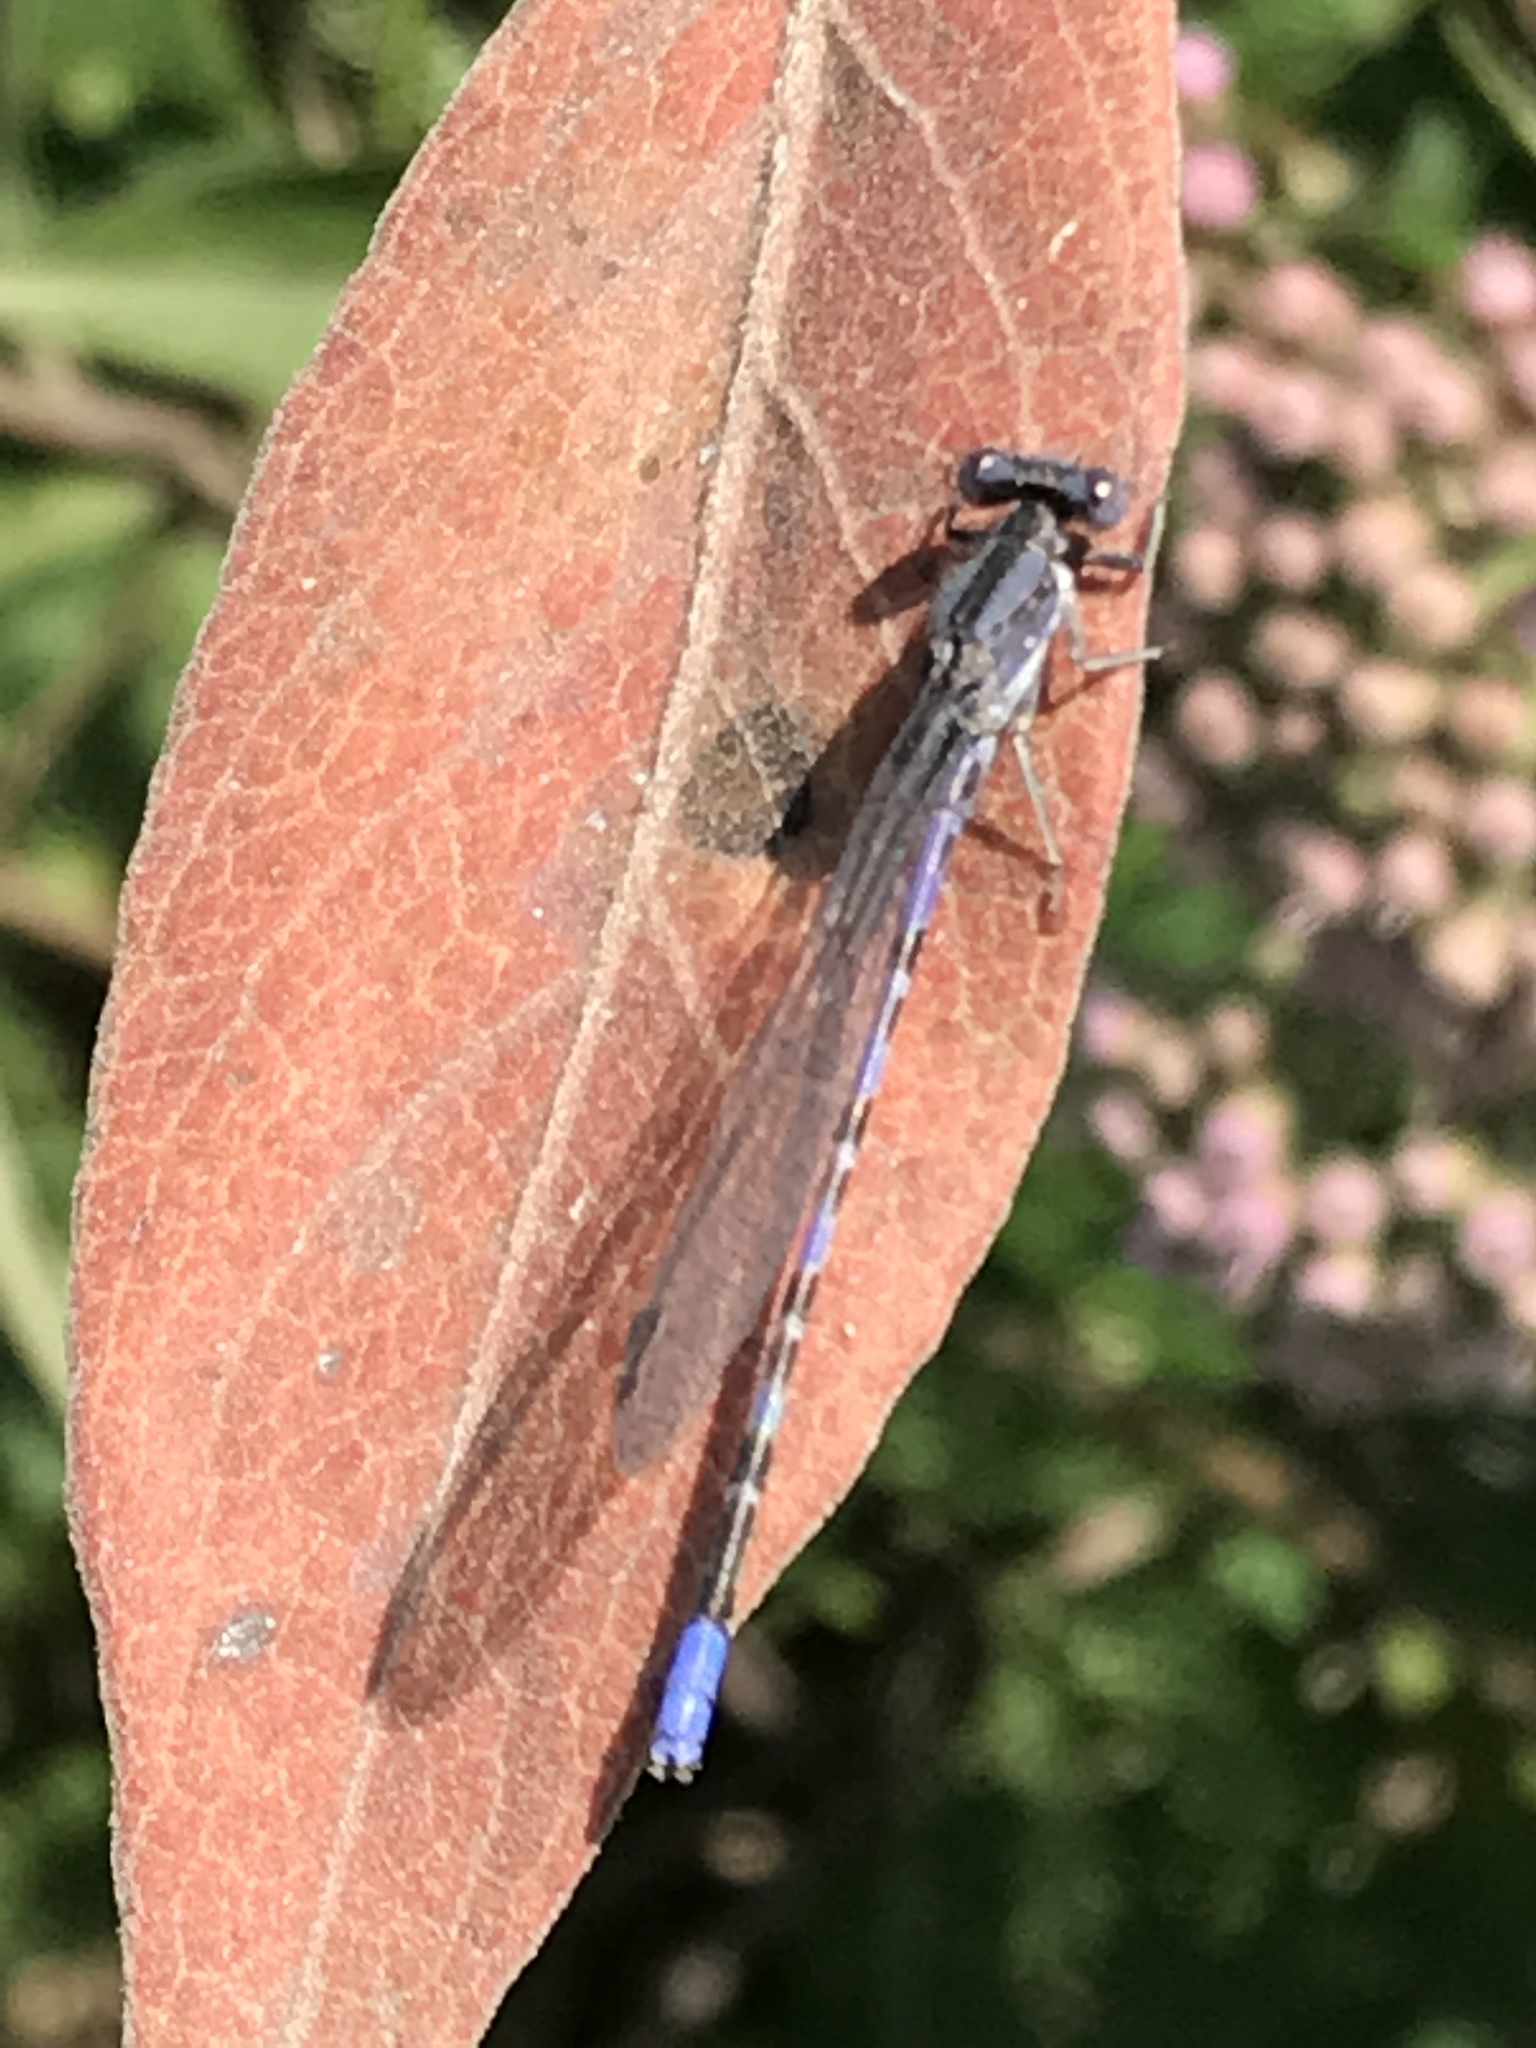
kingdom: Animalia
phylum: Arthropoda
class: Insecta
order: Odonata
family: Coenagrionidae
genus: Argia
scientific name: Argia immunda
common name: Kiowa dancer
